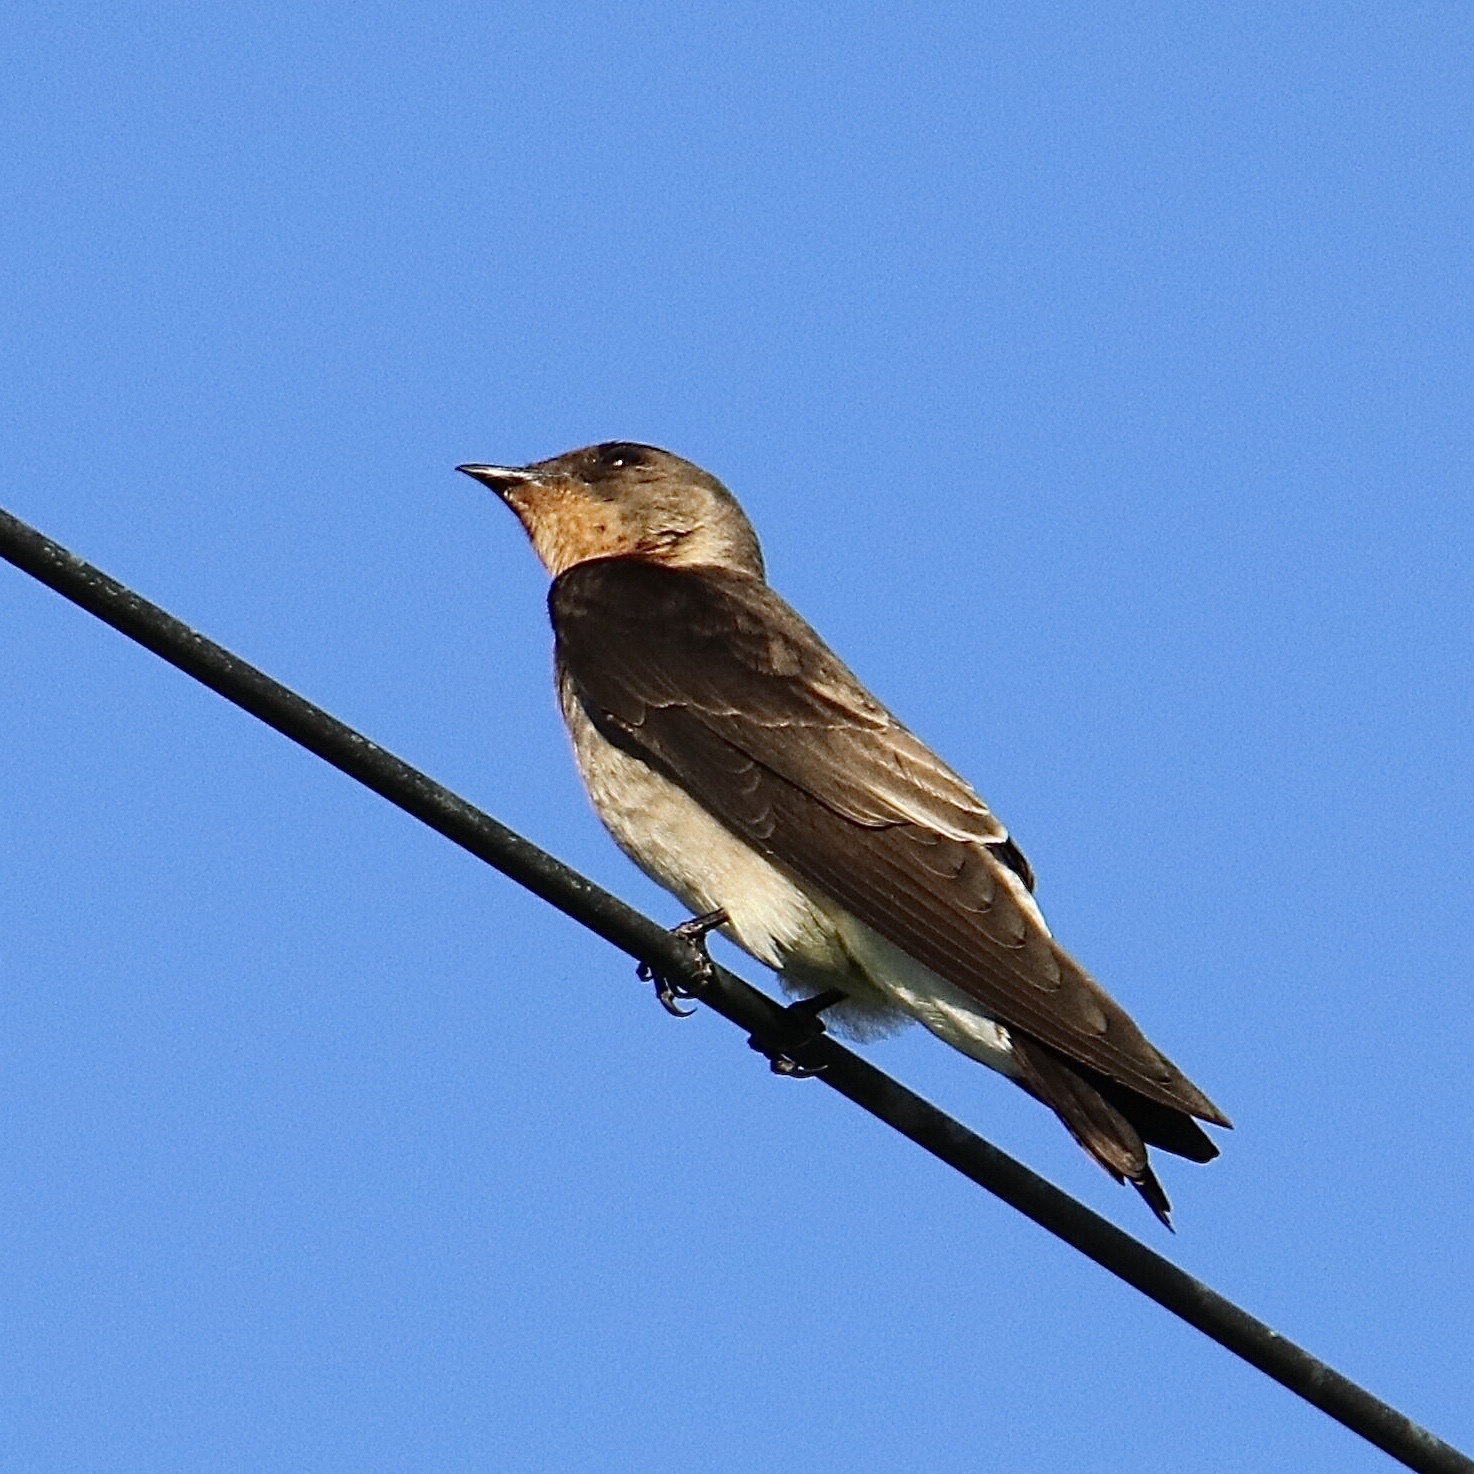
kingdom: Animalia
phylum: Chordata
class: Aves
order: Passeriformes
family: Hirundinidae
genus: Stelgidopteryx
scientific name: Stelgidopteryx ruficollis
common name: Southern rough-winged swallow
